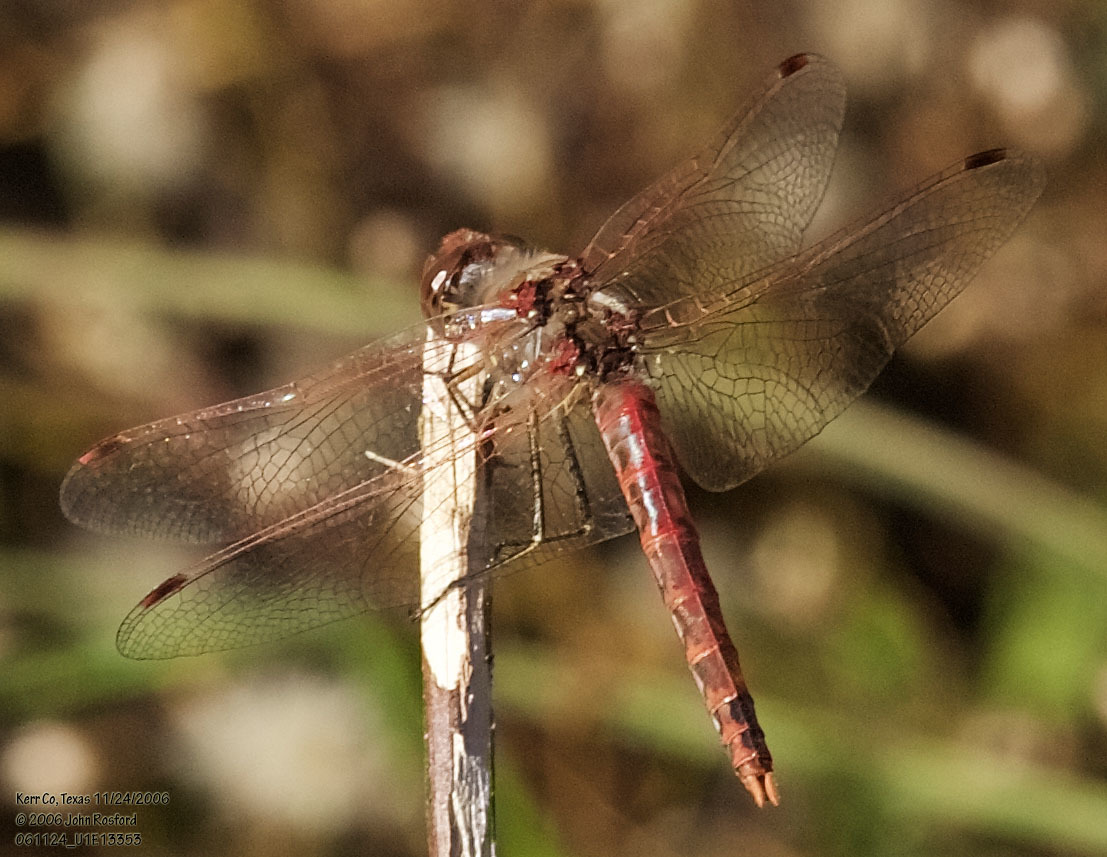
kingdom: Animalia
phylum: Arthropoda
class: Insecta
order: Odonata
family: Libellulidae
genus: Sympetrum
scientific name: Sympetrum corruptum
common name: Variegated meadowhawk
